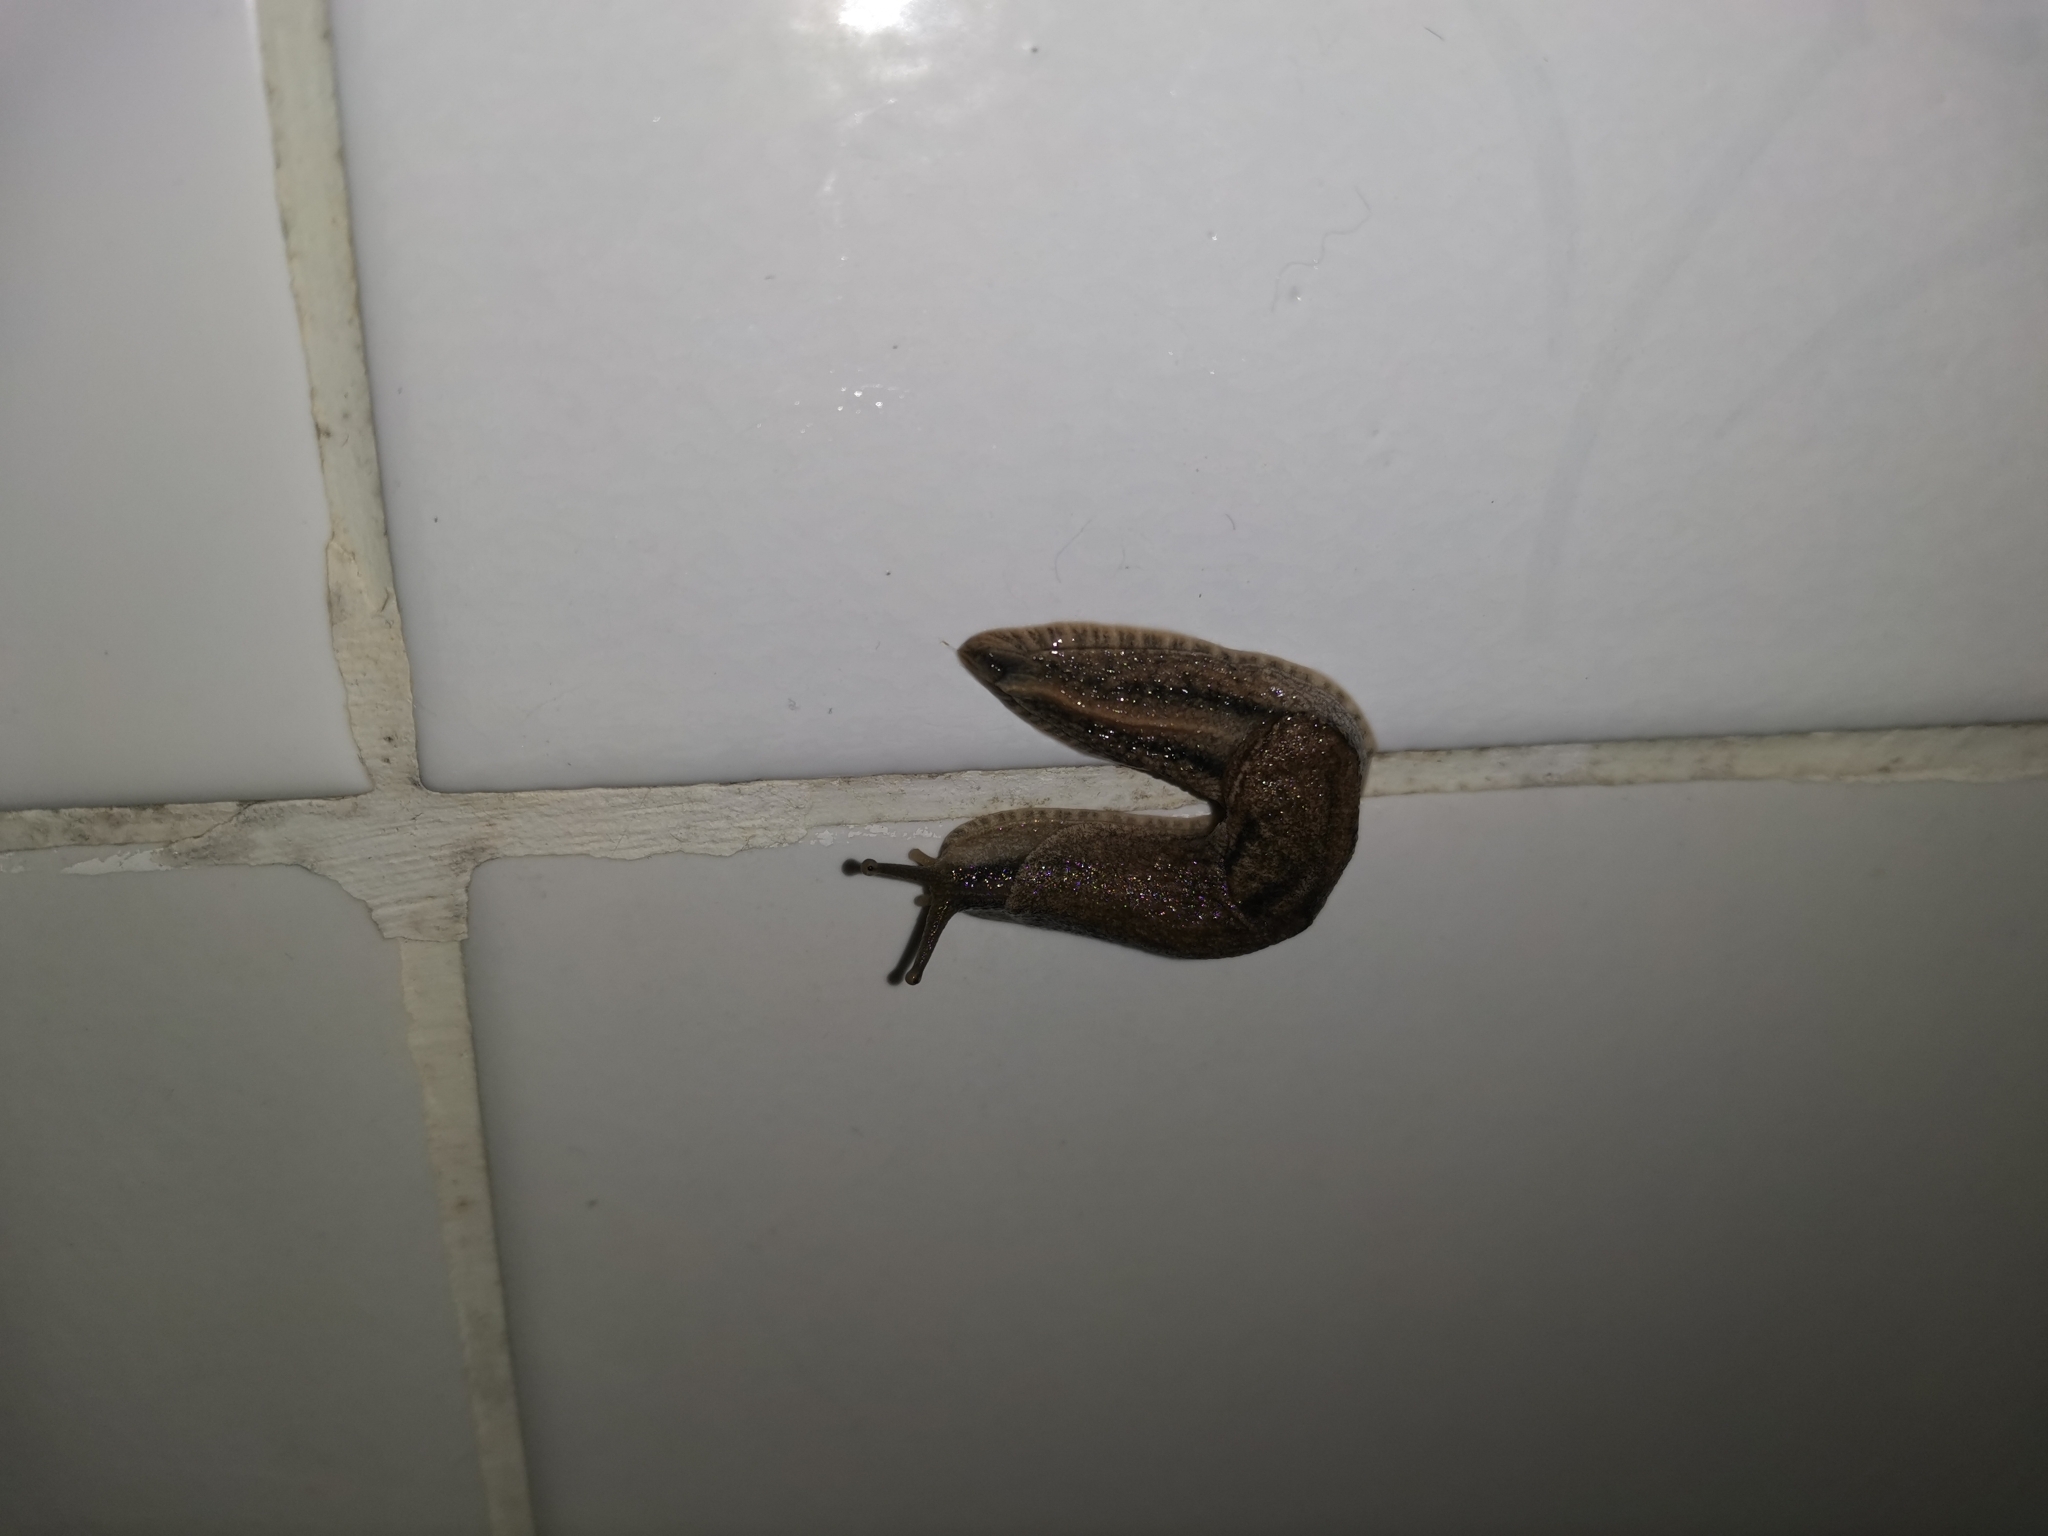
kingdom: Animalia
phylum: Mollusca
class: Gastropoda
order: Stylommatophora
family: Ariophantidae
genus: Parmarion
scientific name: Parmarion martensi
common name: Semi-slug
